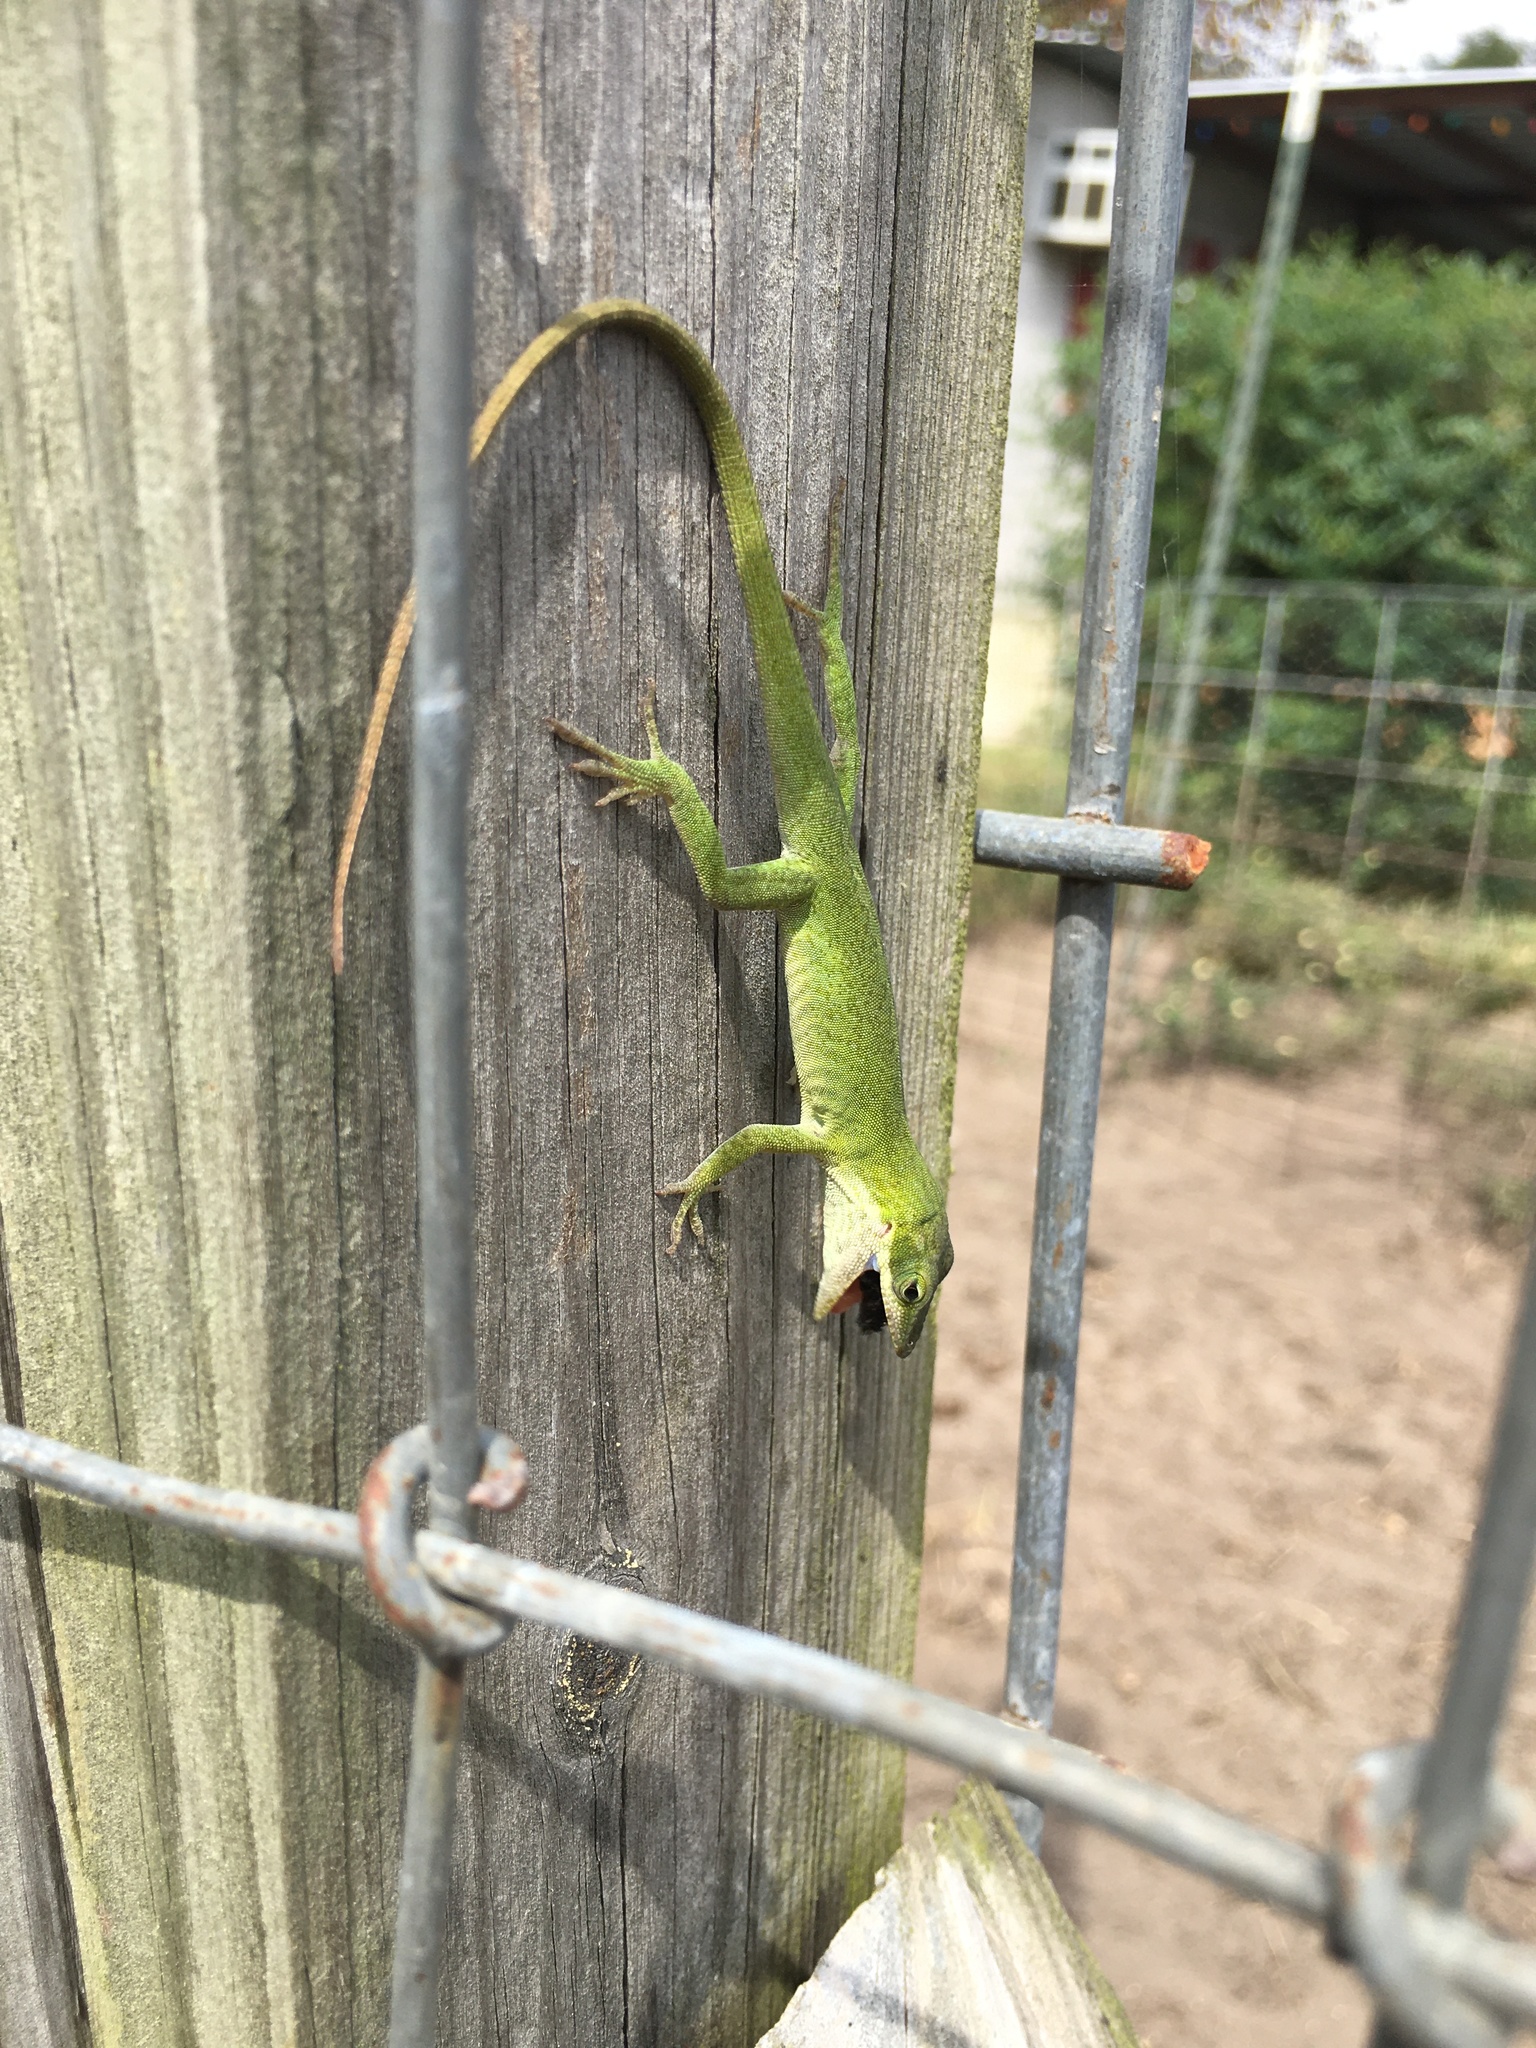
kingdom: Animalia
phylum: Chordata
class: Squamata
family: Dactyloidae
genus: Anolis
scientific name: Anolis carolinensis
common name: Green anole
